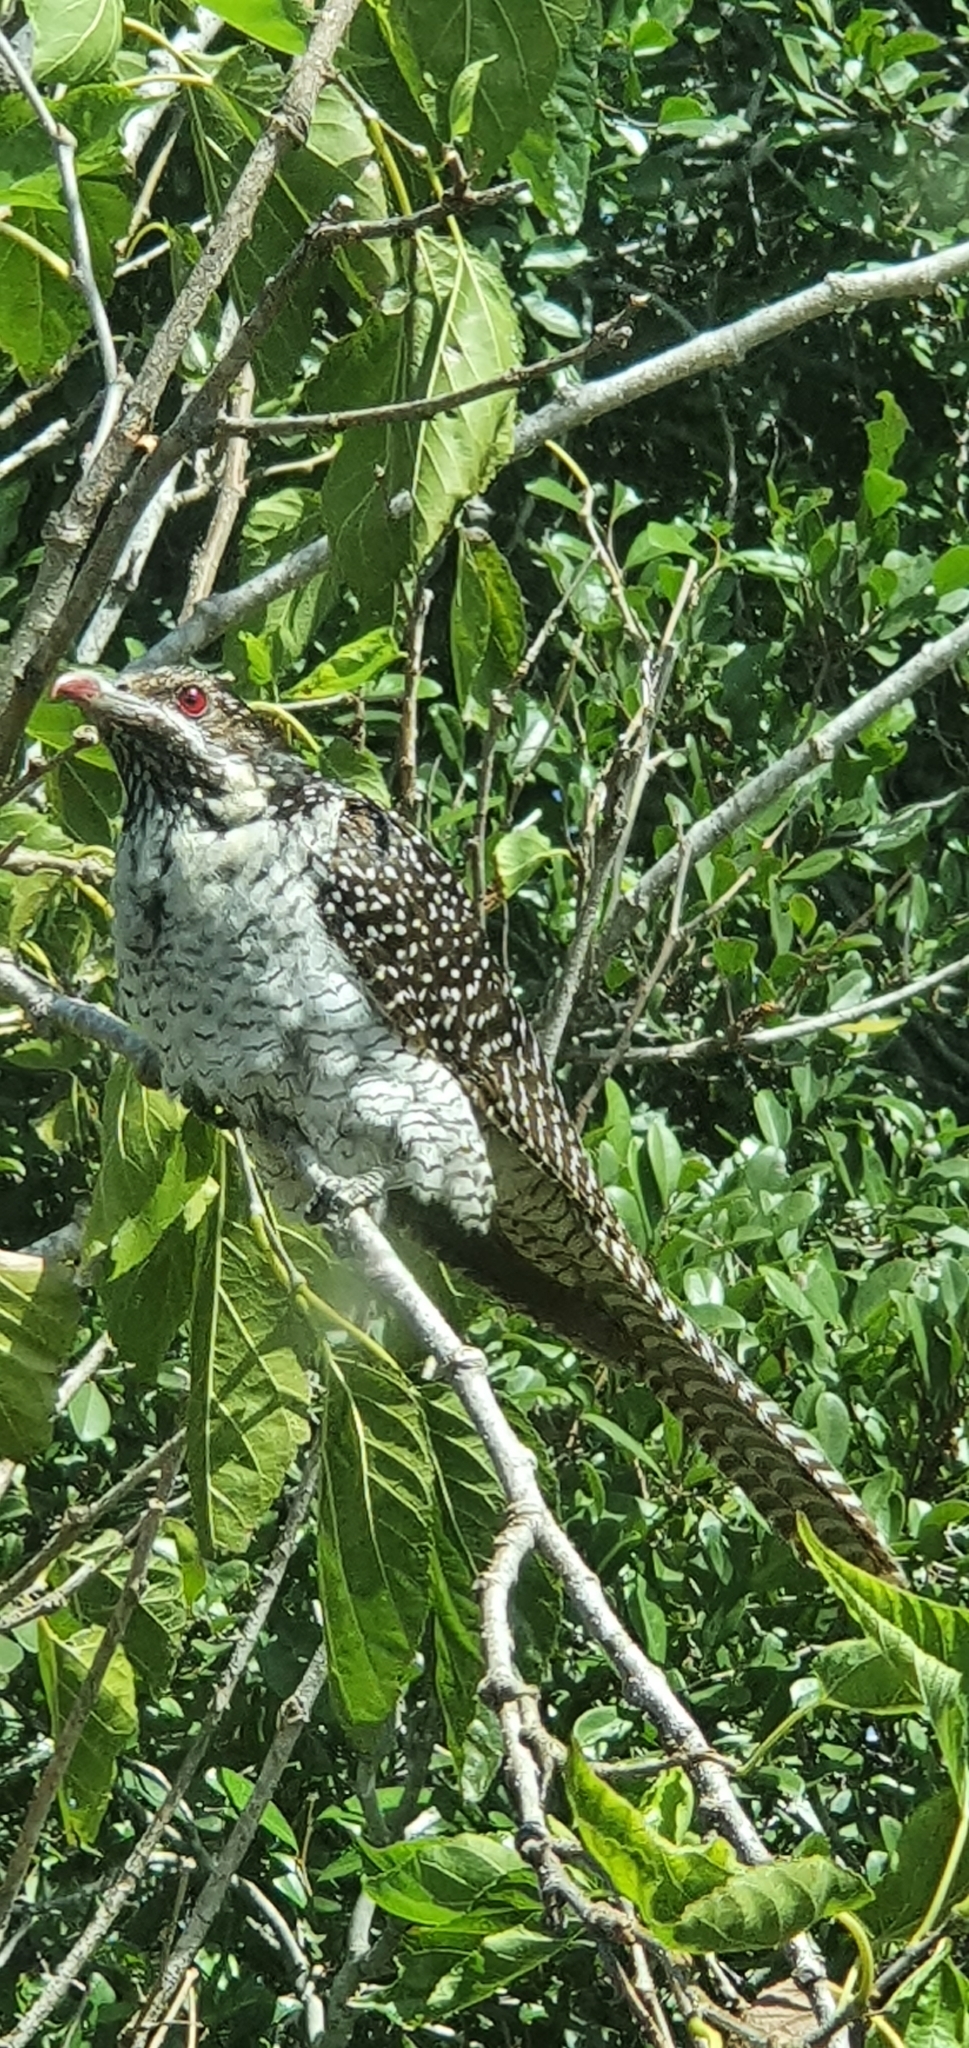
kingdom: Animalia
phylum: Chordata
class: Aves
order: Cuculiformes
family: Cuculidae
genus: Eudynamys
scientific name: Eudynamys orientalis
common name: Pacific koel
